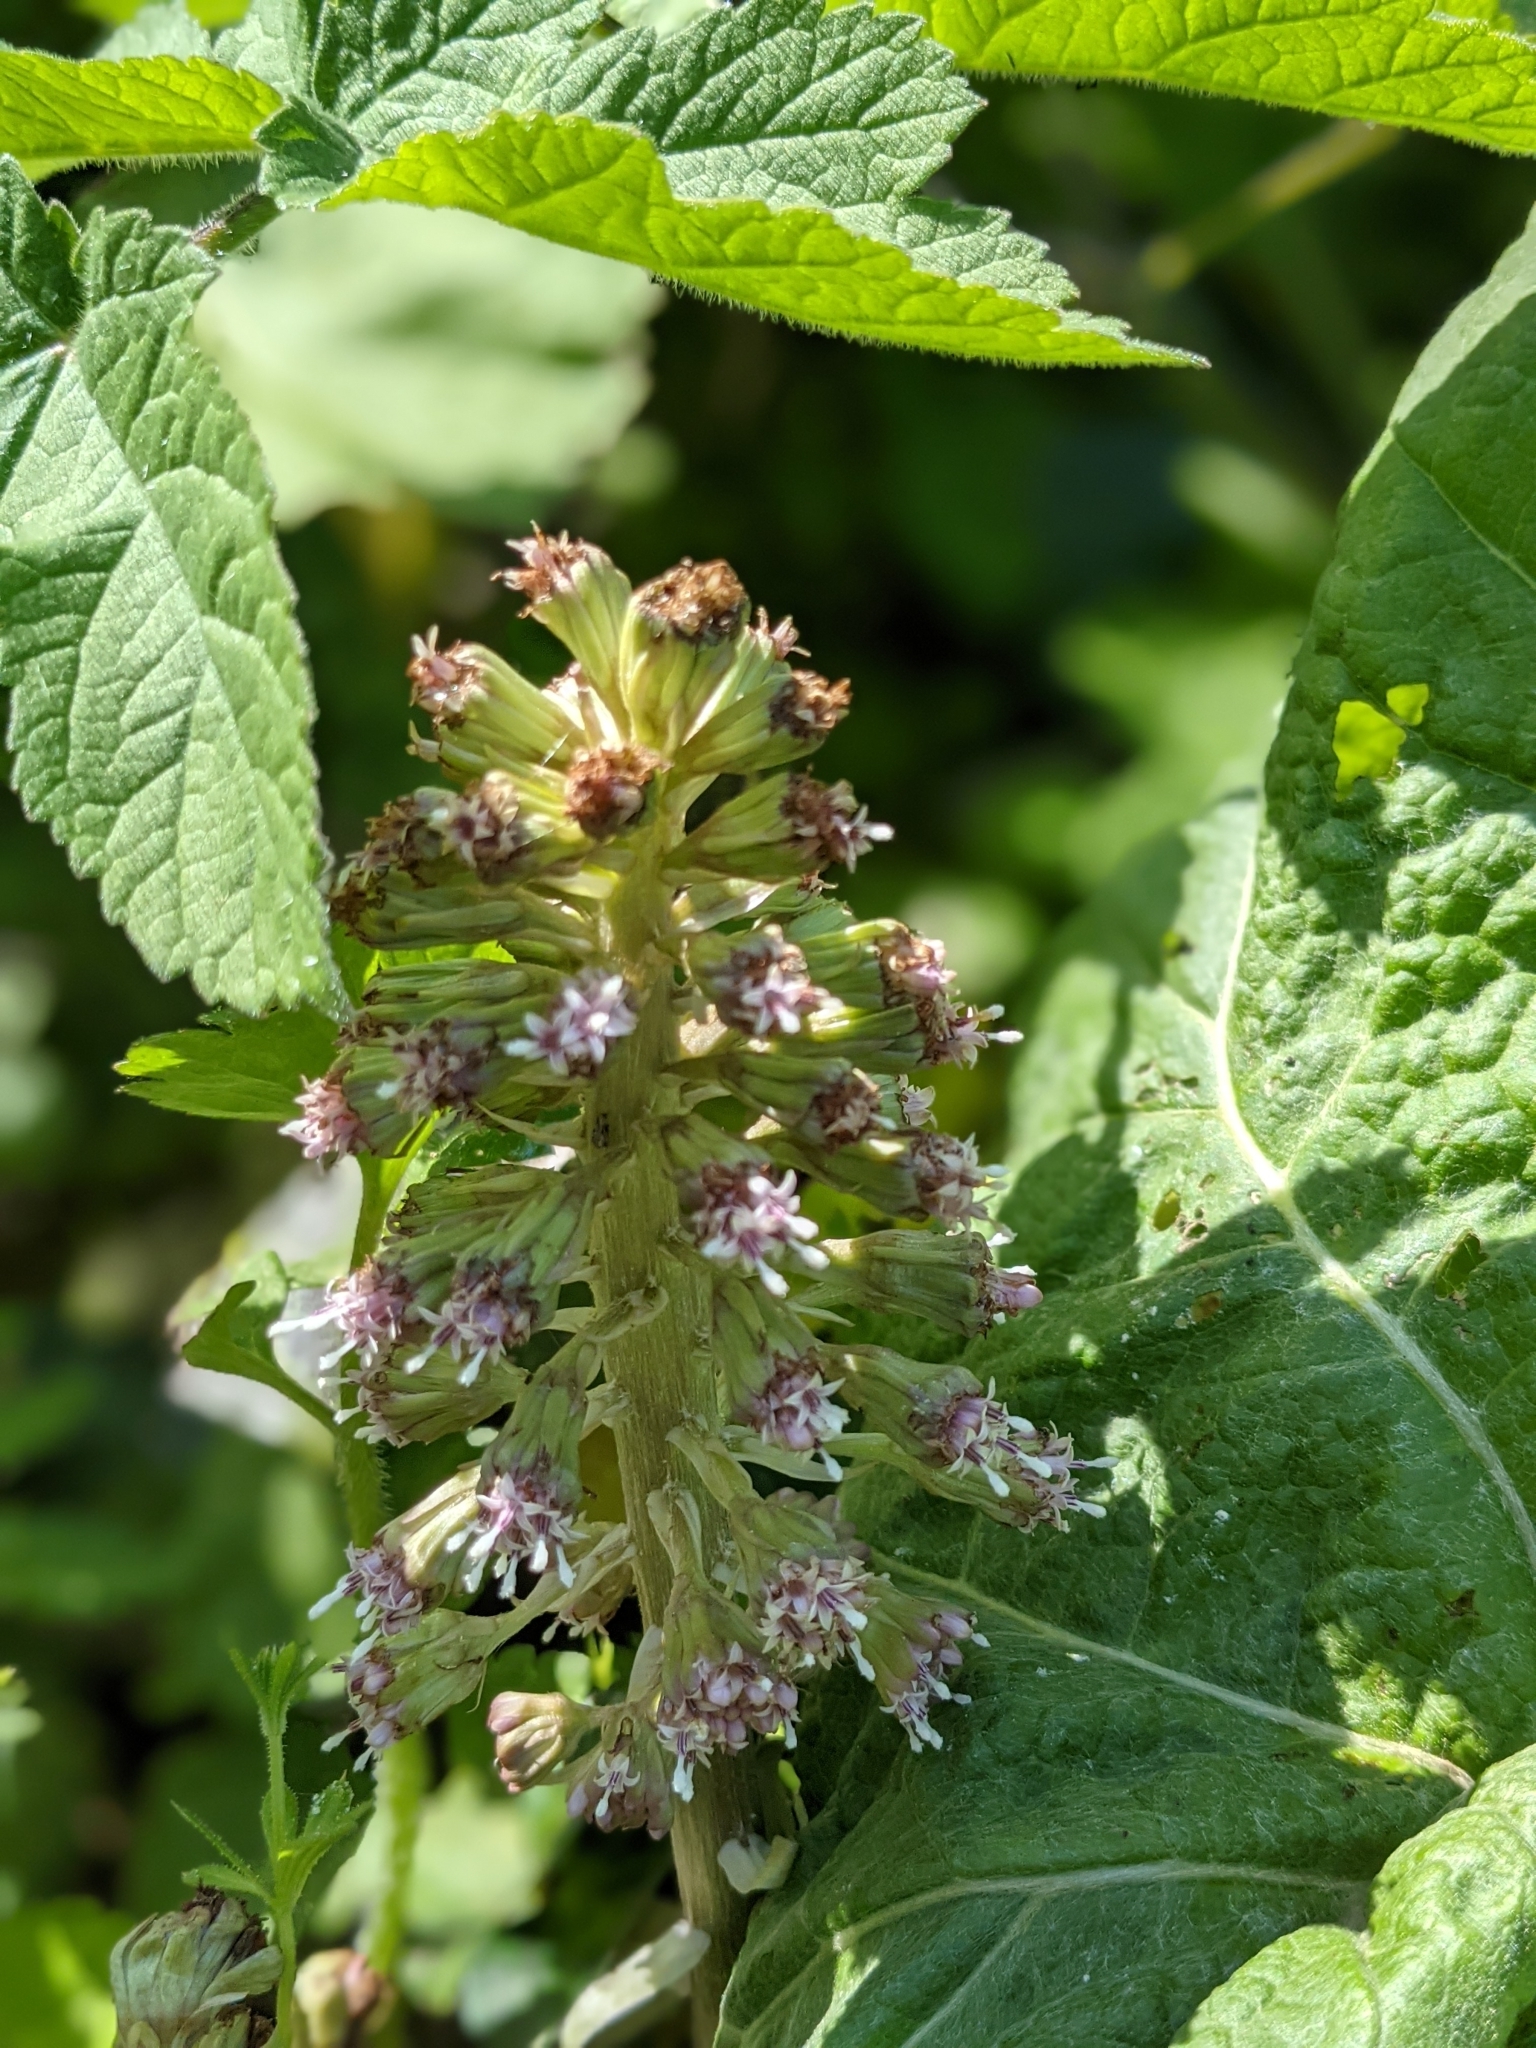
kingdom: Plantae
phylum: Tracheophyta
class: Magnoliopsida
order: Asterales
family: Asteraceae
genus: Petasites
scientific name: Petasites hybridus
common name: Butterbur
